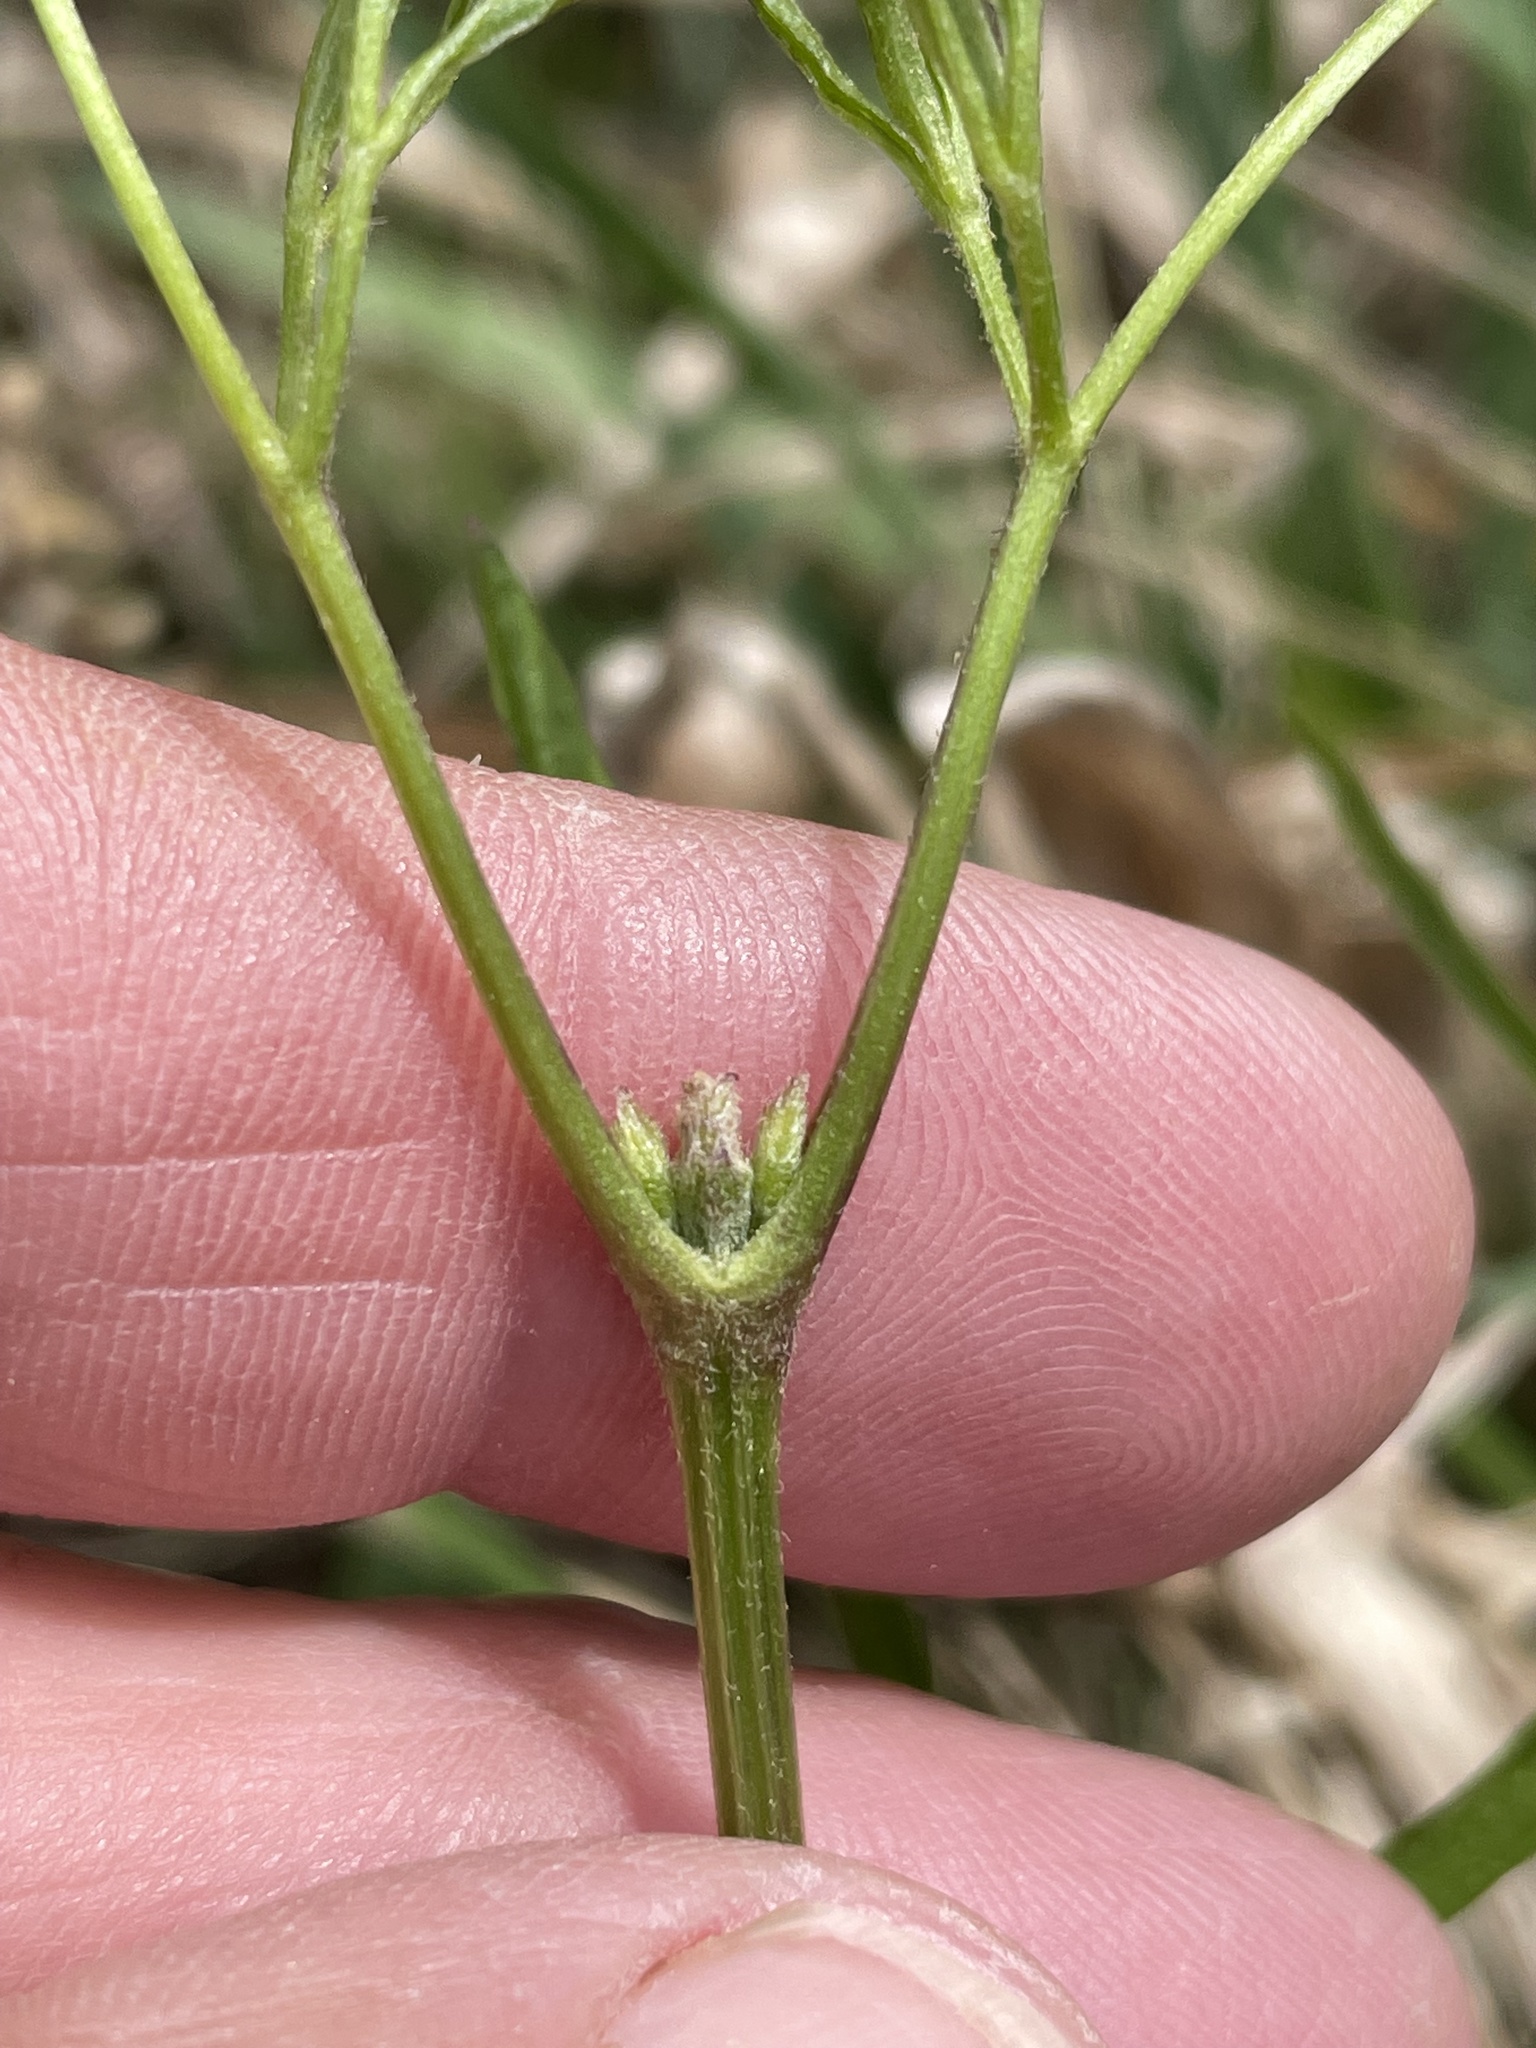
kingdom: Plantae
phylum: Tracheophyta
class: Magnoliopsida
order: Ranunculales
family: Ranunculaceae
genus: Clematis
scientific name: Clematis crispa
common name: Curly clematis
